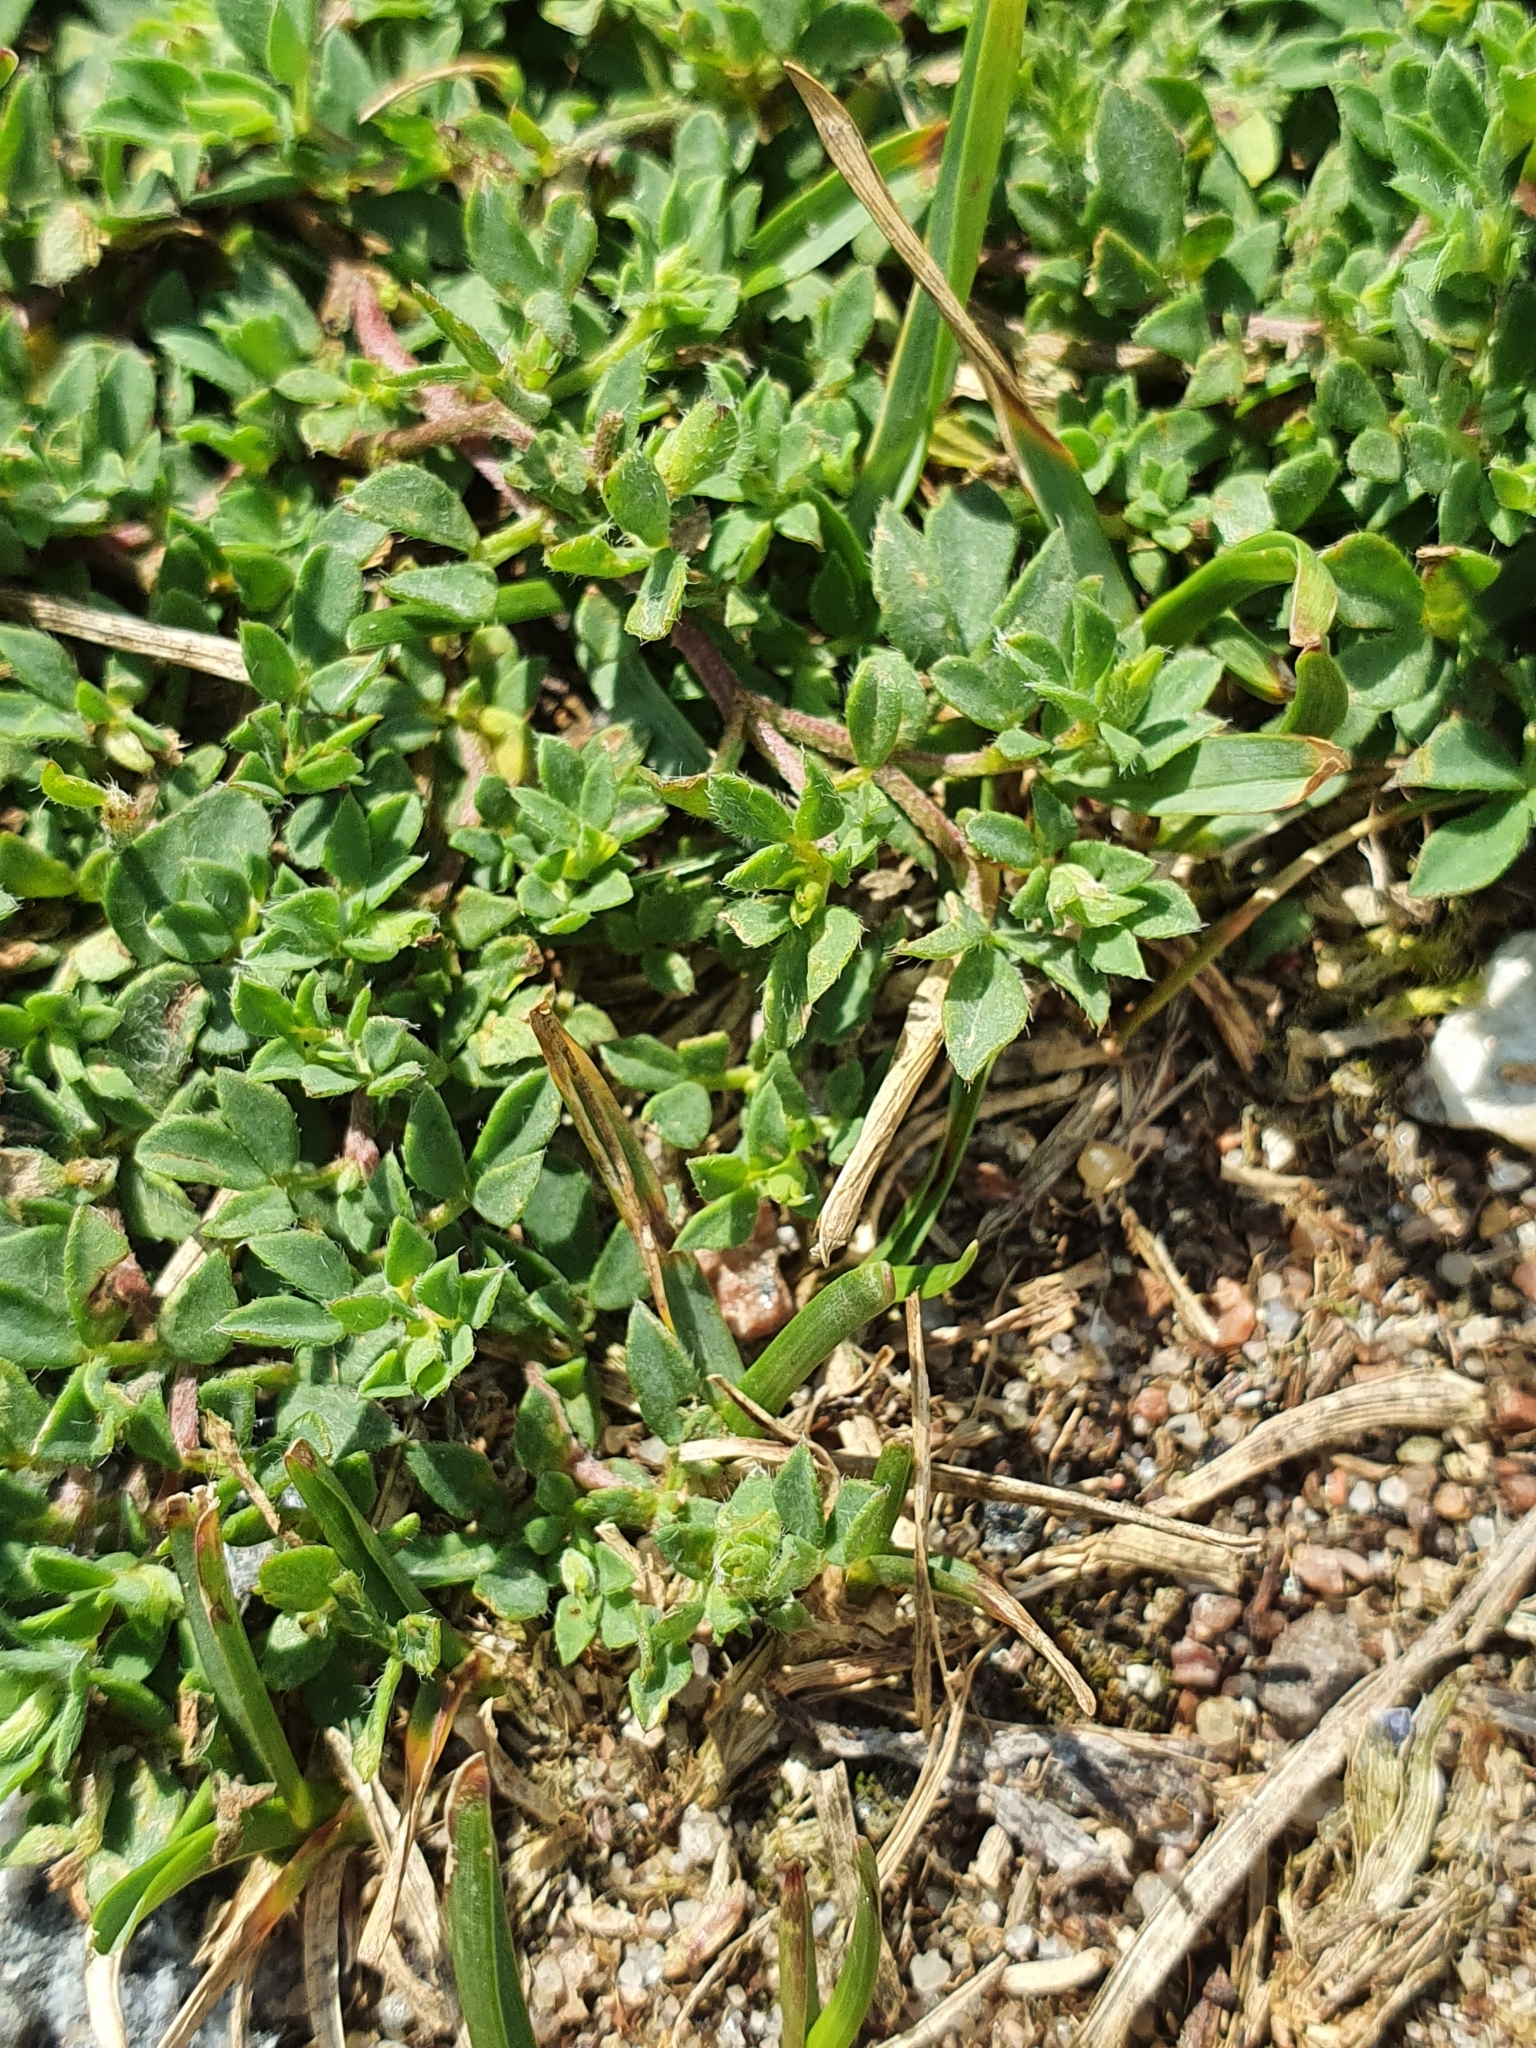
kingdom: Plantae
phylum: Tracheophyta
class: Magnoliopsida
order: Fabales
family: Fabaceae
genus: Lotus
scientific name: Lotus corniculatus
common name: Common bird's-foot-trefoil
